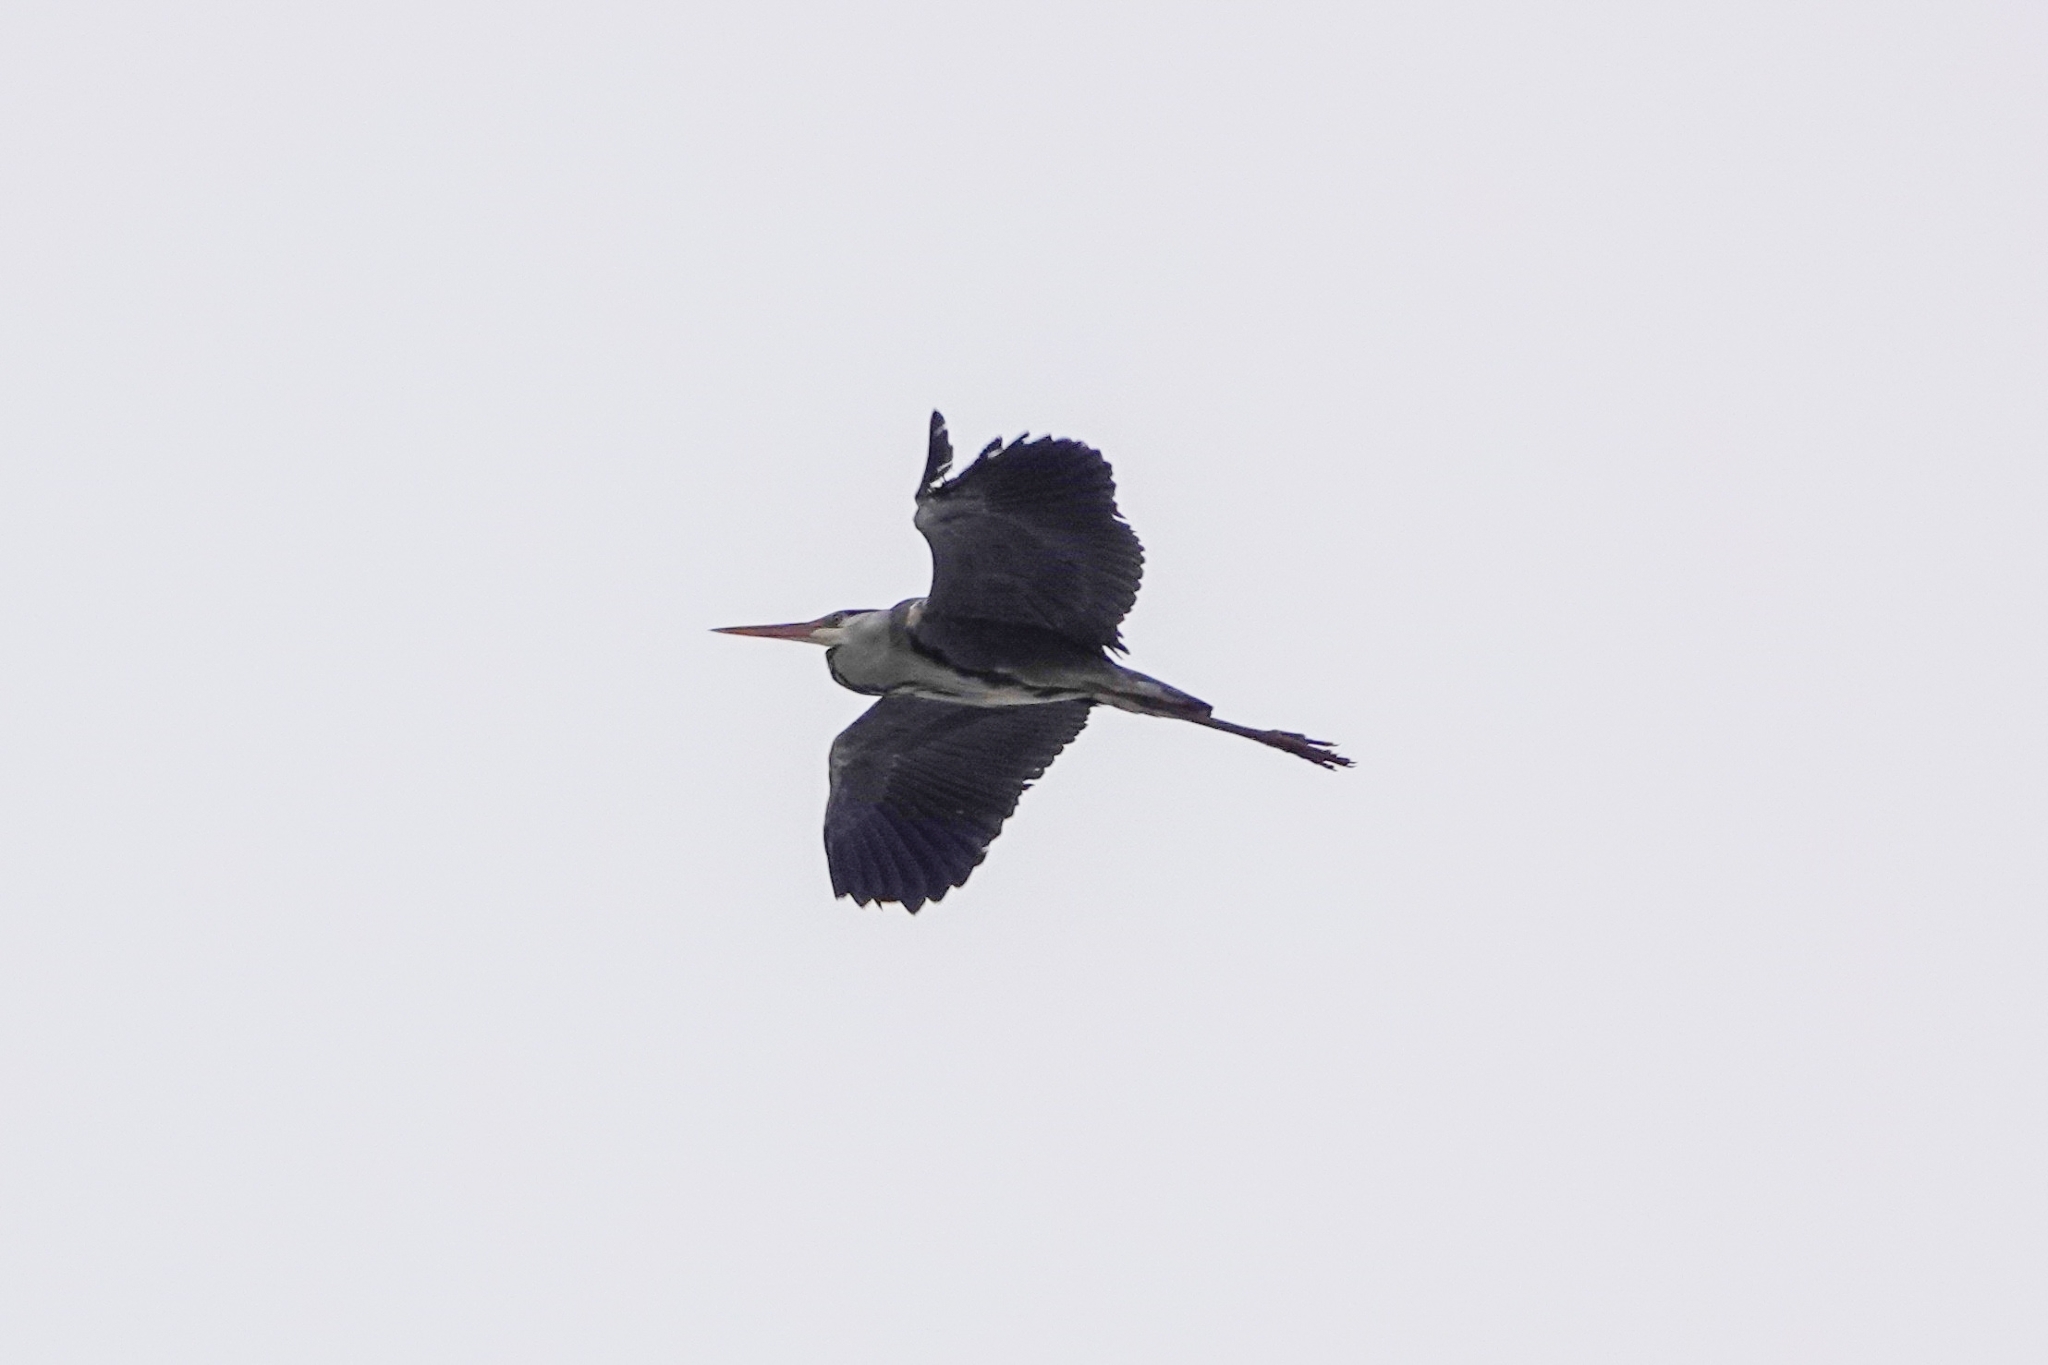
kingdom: Animalia
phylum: Chordata
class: Aves
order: Pelecaniformes
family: Ardeidae
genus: Ardea
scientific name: Ardea cinerea
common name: Grey heron
